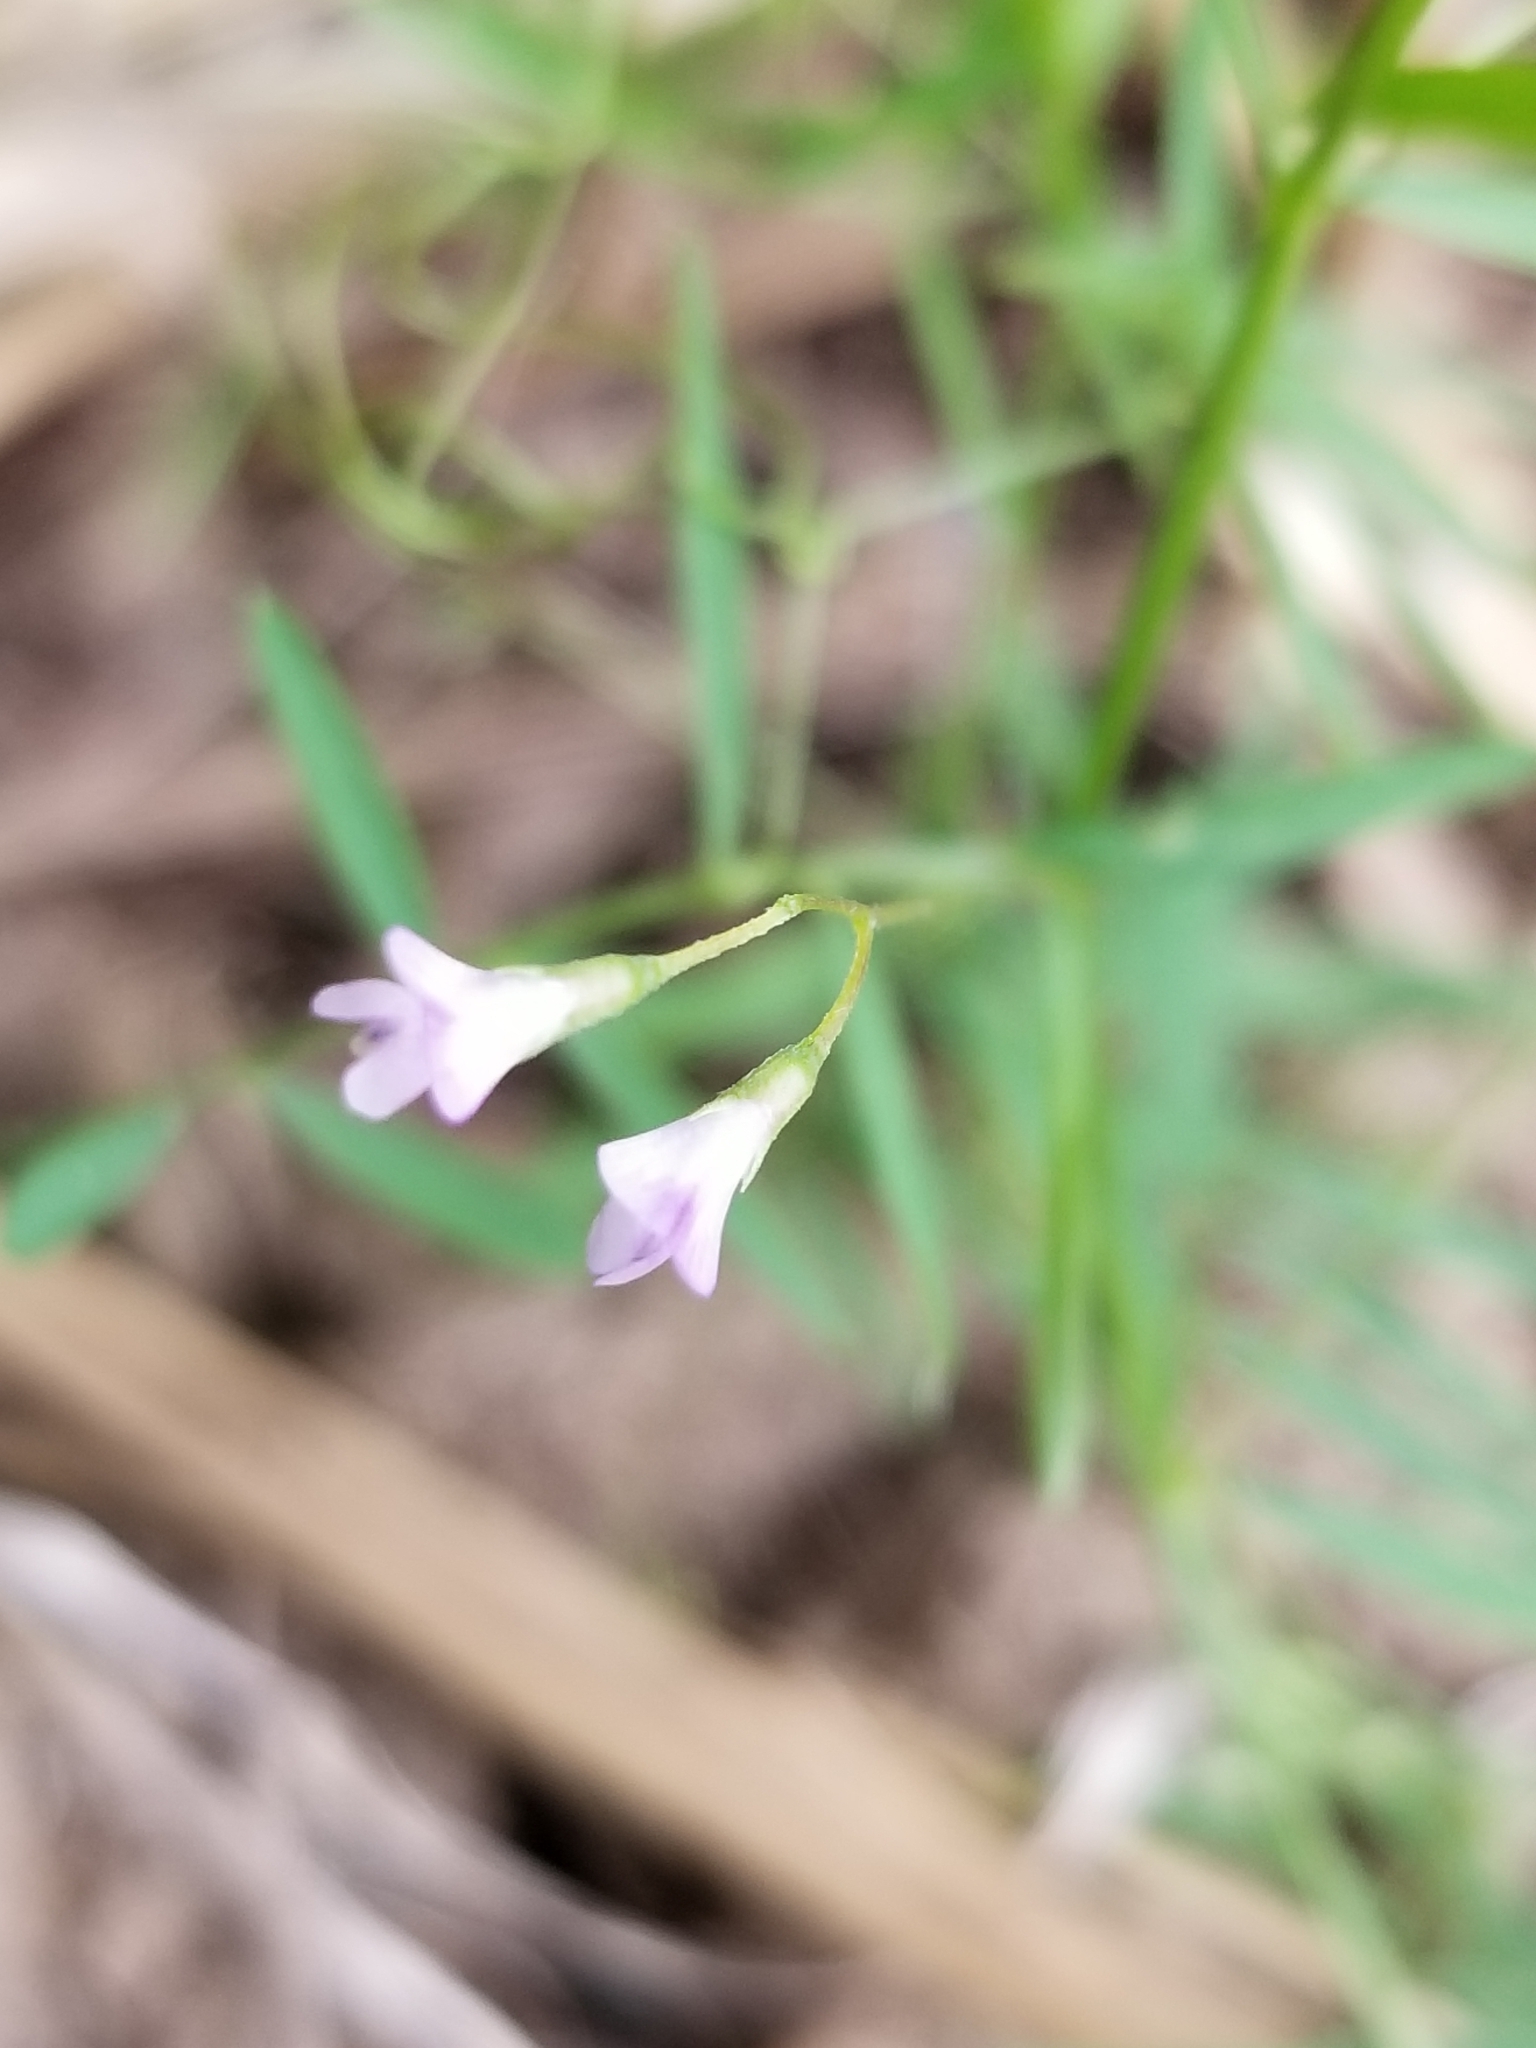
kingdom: Plantae
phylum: Tracheophyta
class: Magnoliopsida
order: Fabales
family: Fabaceae
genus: Vicia
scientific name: Vicia tetrasperma
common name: Smooth tare
